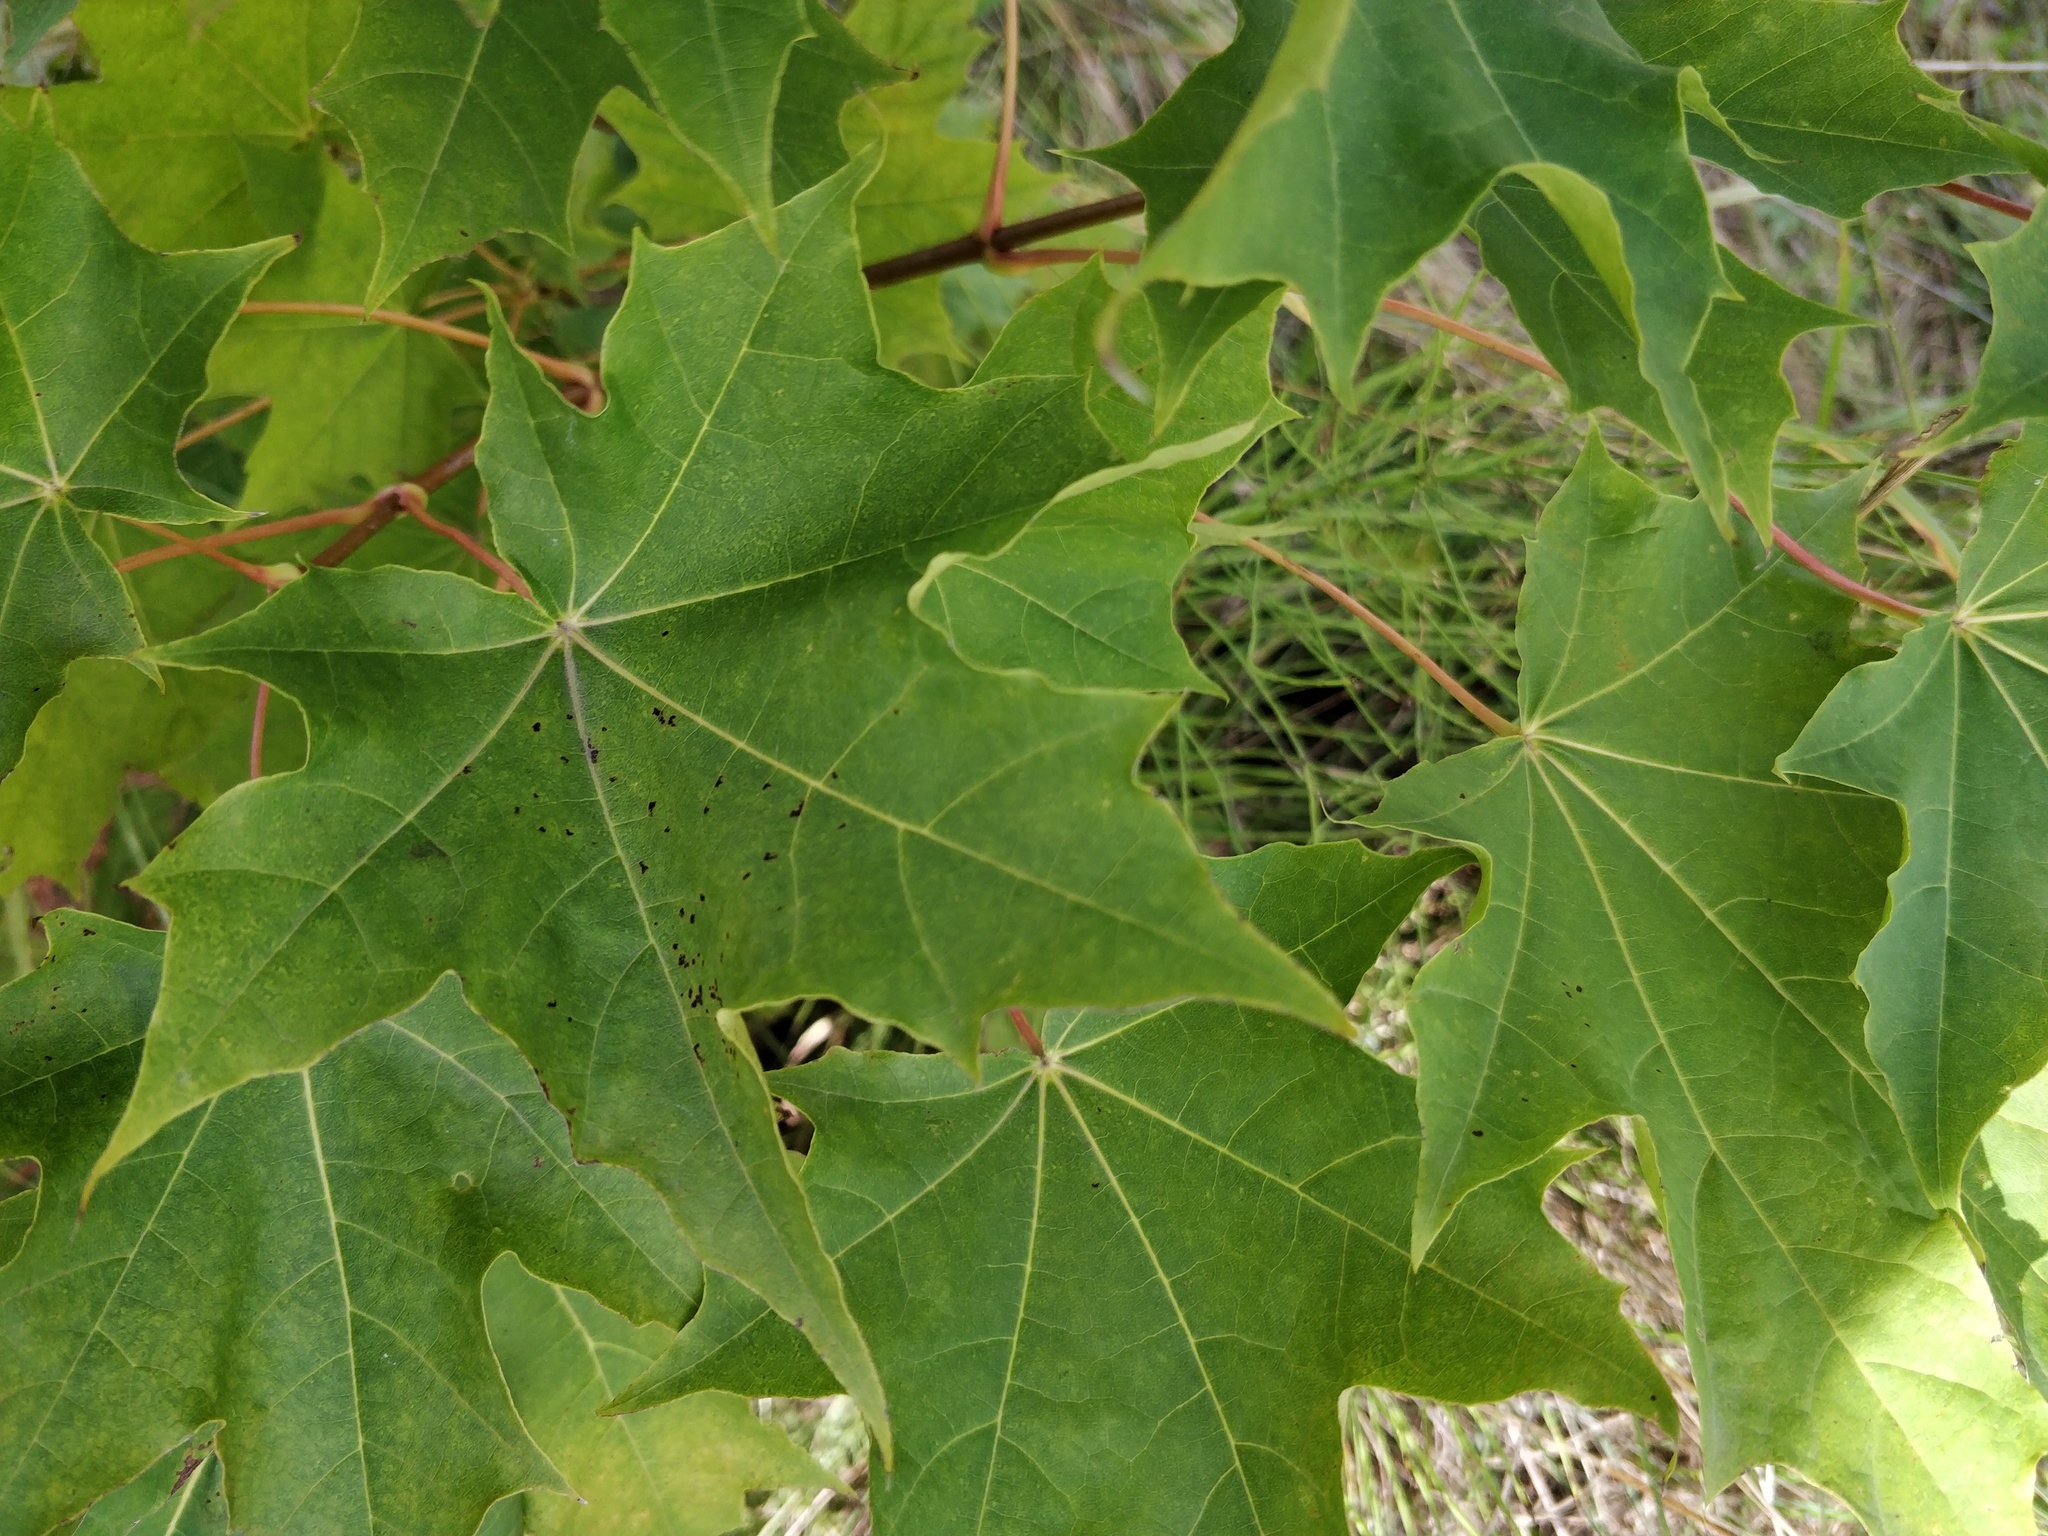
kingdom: Plantae
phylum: Tracheophyta
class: Magnoliopsida
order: Sapindales
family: Sapindaceae
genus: Acer
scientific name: Acer platanoides
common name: Norway maple
